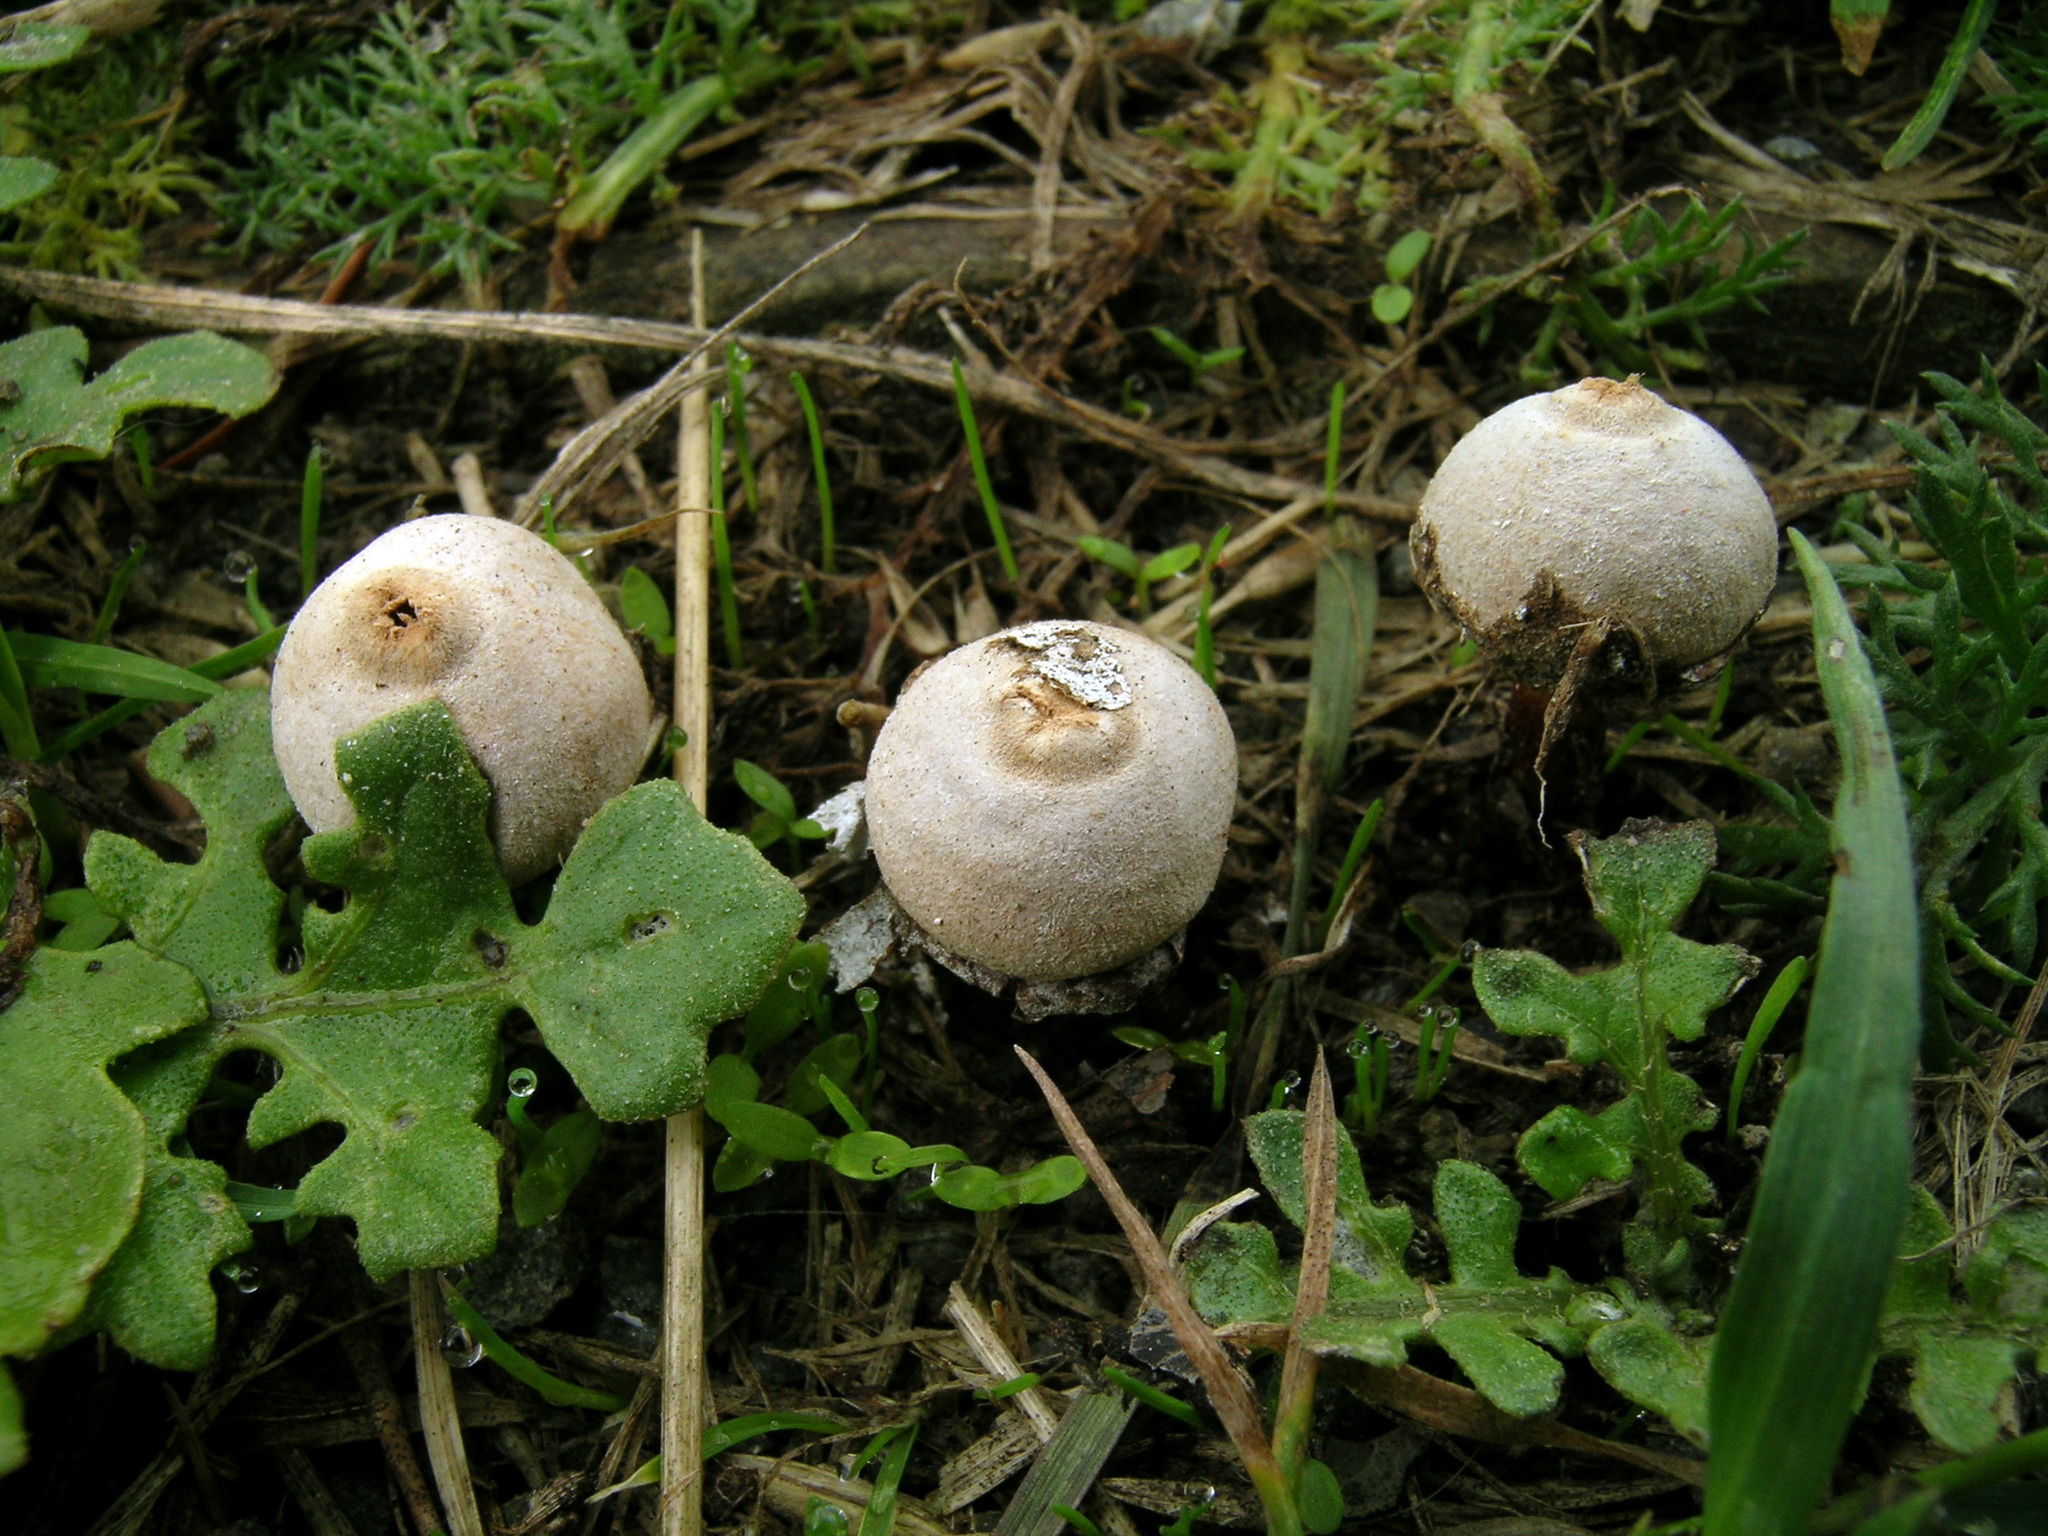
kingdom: Fungi
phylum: Basidiomycota
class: Agaricomycetes
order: Agaricales
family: Agaricaceae
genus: Tulostoma
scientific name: Tulostoma cyclophorum
